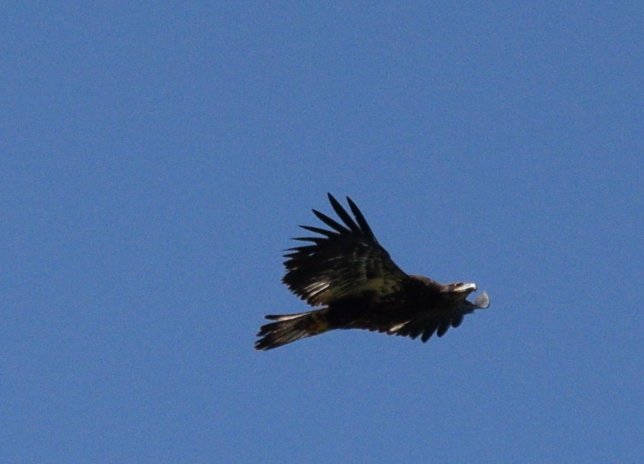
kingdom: Animalia
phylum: Chordata
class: Aves
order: Accipitriformes
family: Accipitridae
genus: Haliaeetus
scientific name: Haliaeetus leucocephalus
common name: Bald eagle
